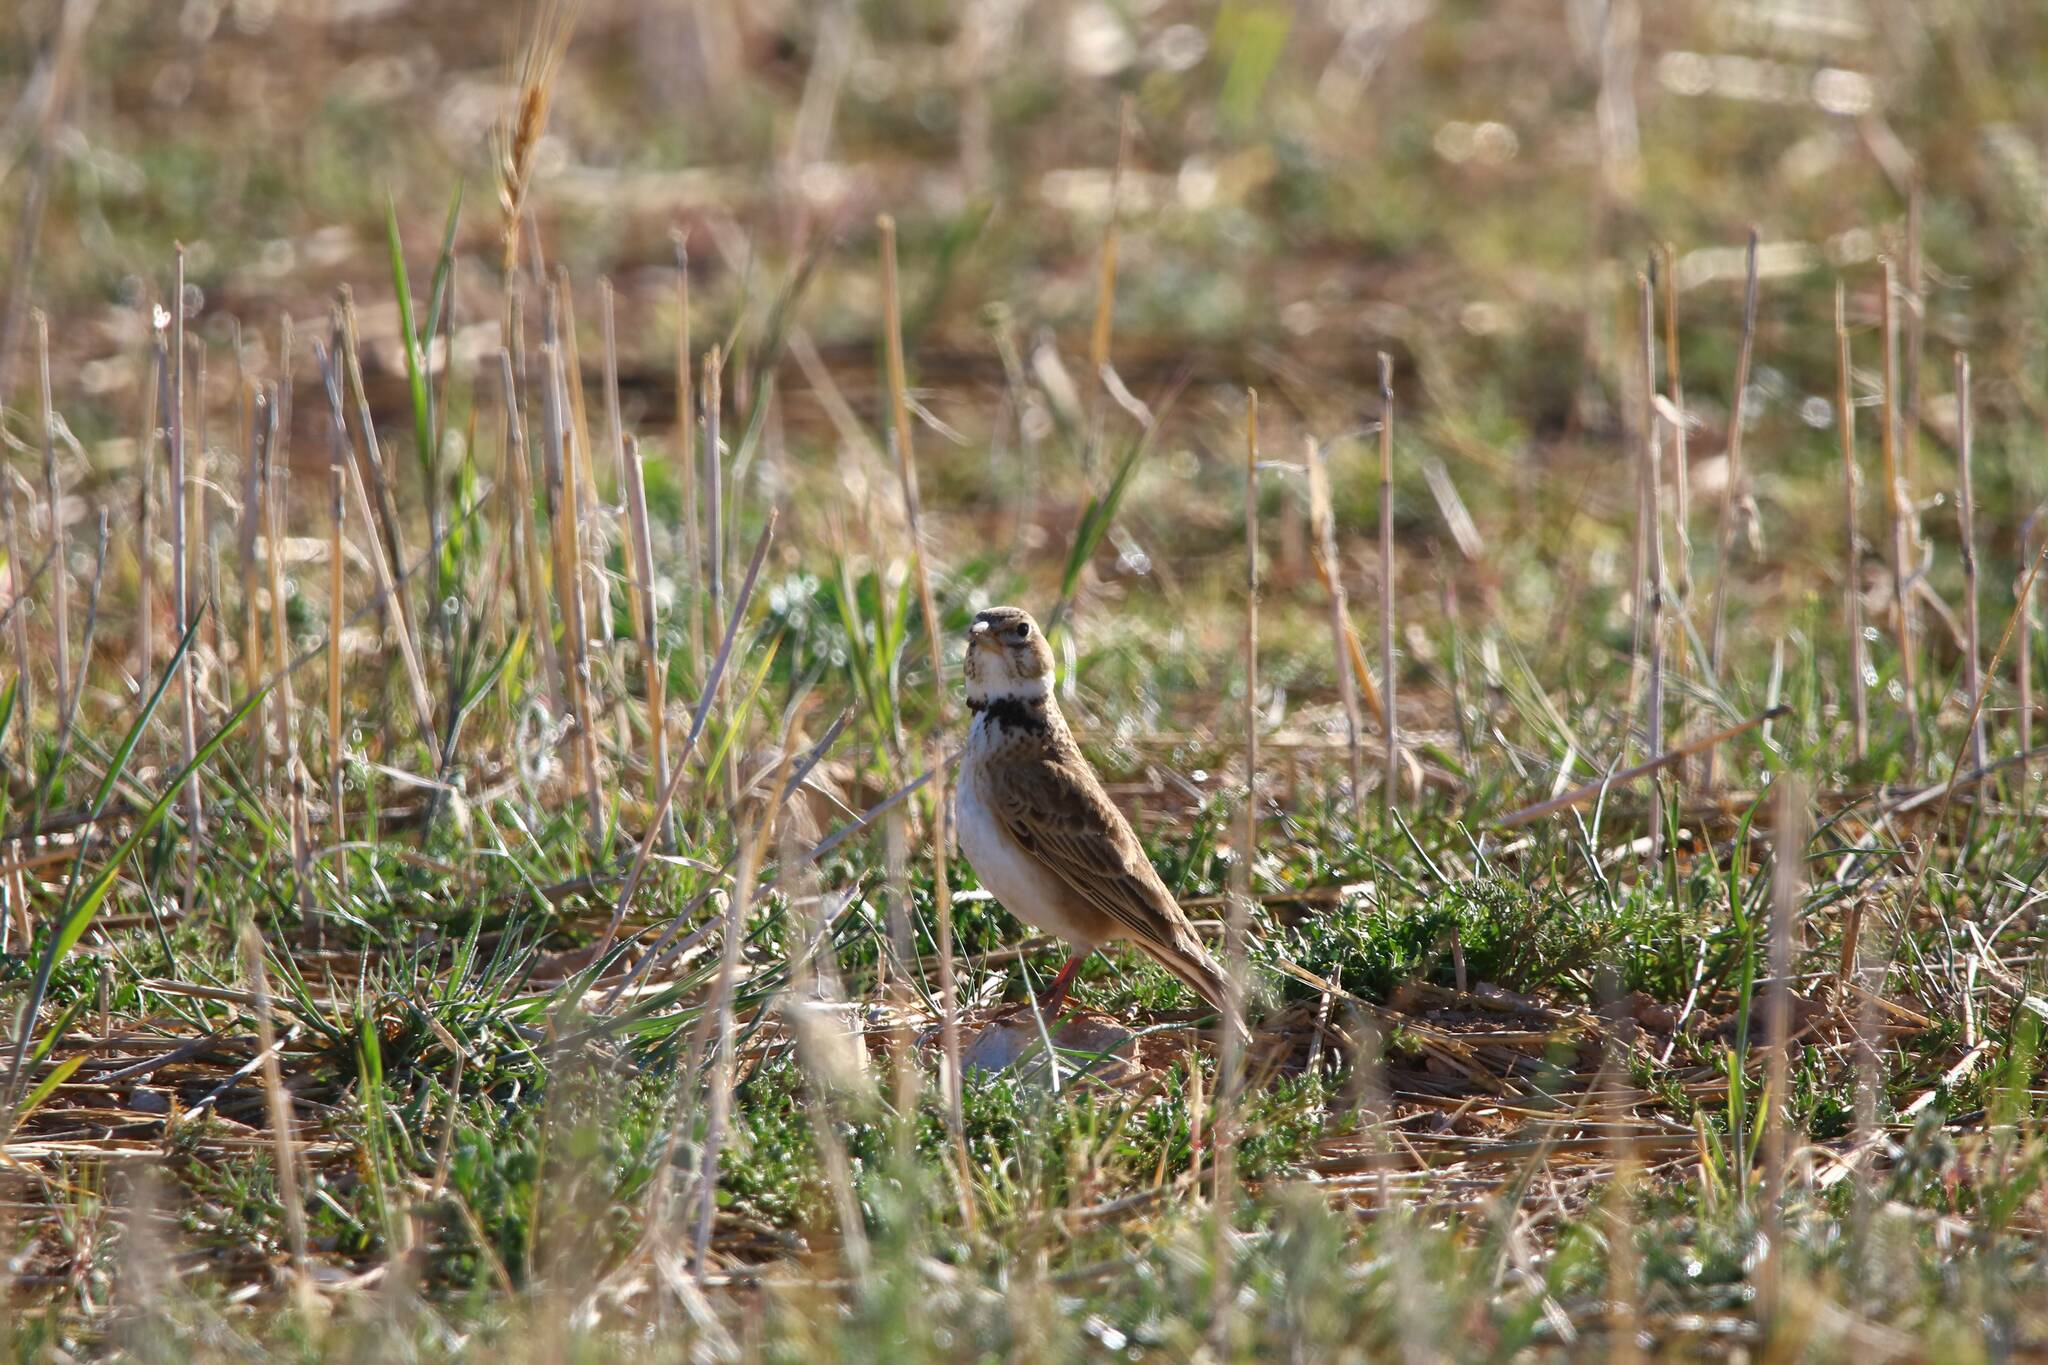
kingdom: Animalia
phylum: Chordata
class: Aves
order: Passeriformes
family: Alaudidae
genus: Melanocorypha
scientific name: Melanocorypha calandra
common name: Calandra lark
